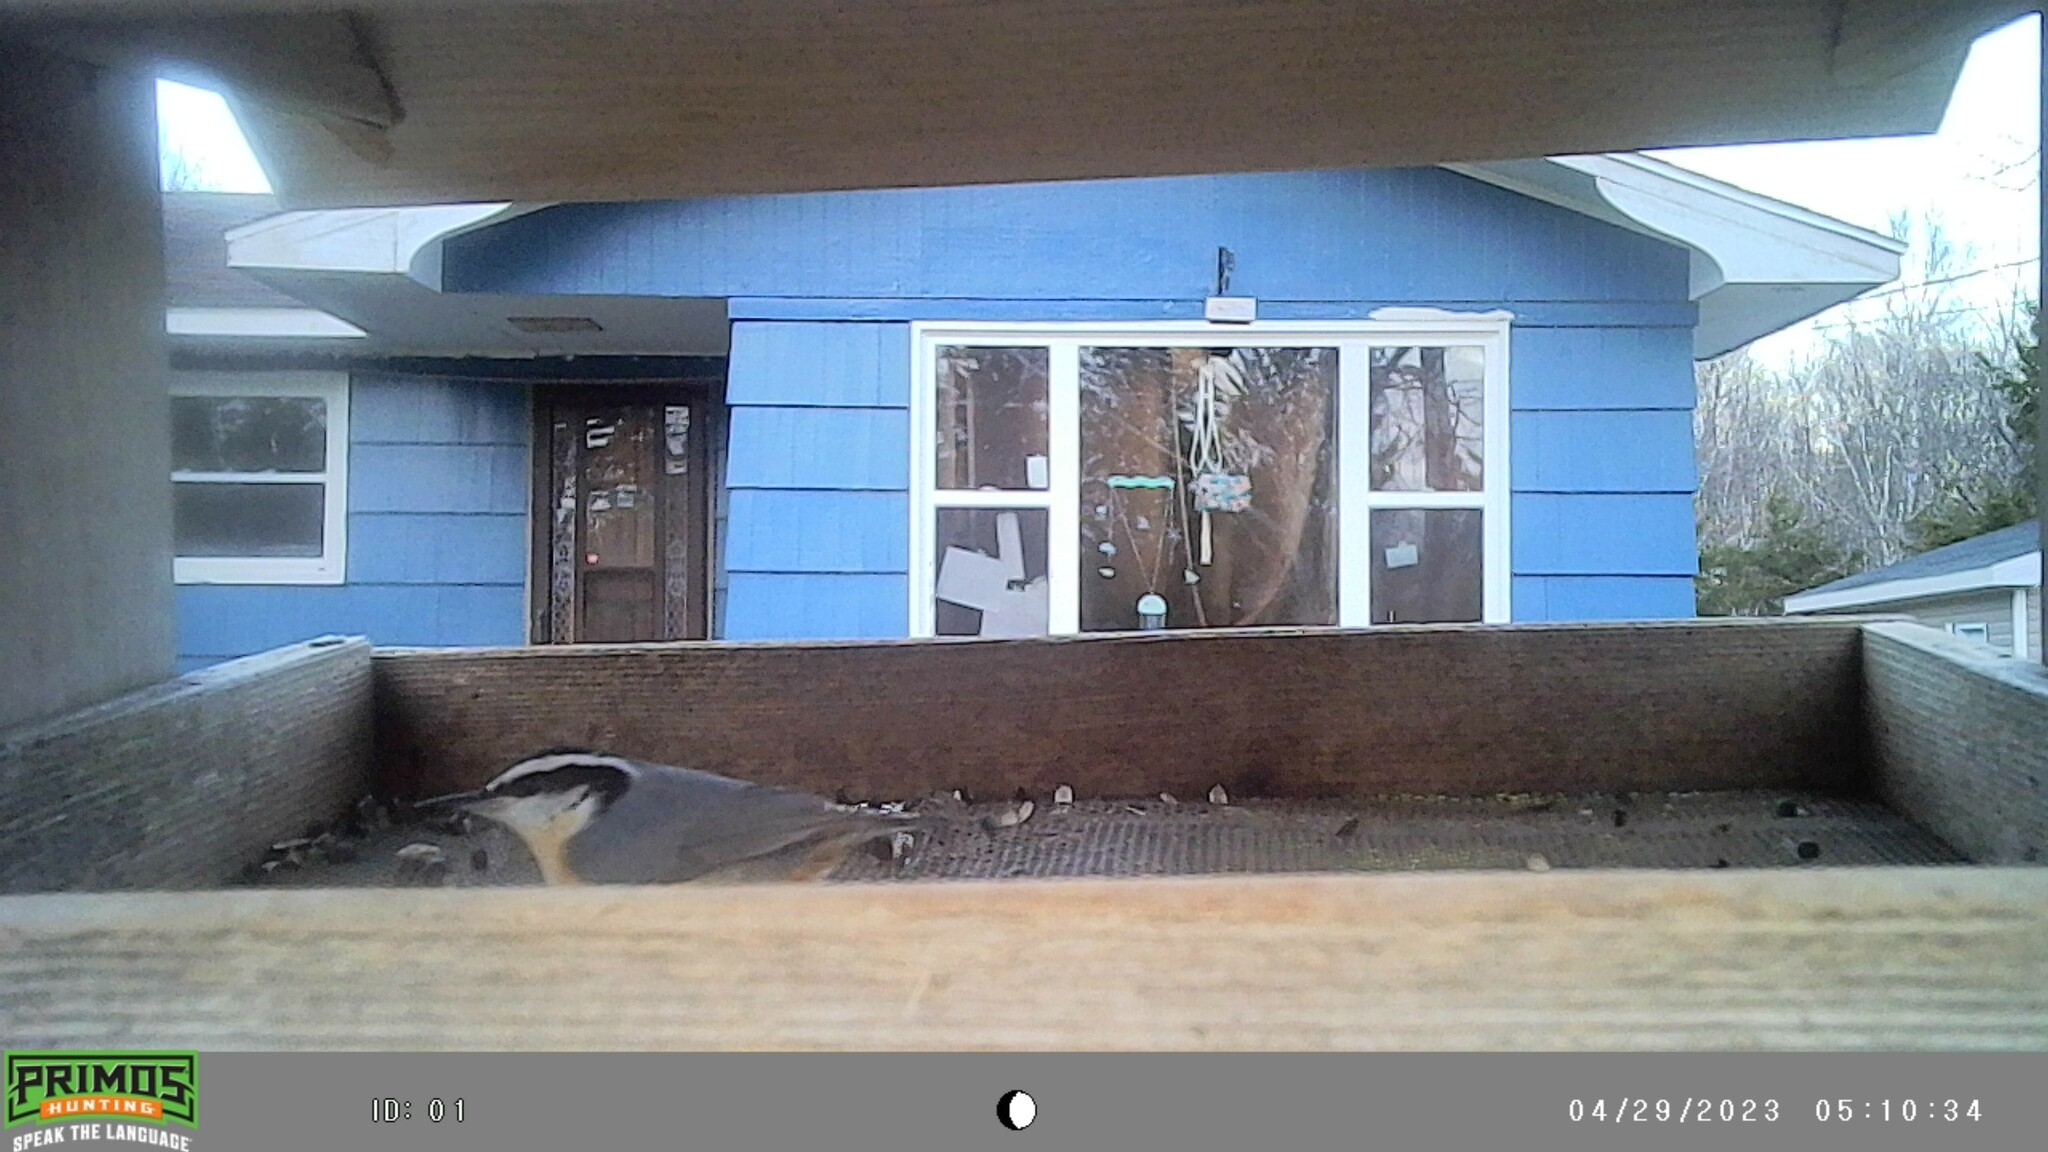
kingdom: Animalia
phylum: Chordata
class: Aves
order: Passeriformes
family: Sittidae
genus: Sitta
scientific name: Sitta canadensis
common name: Red-breasted nuthatch
